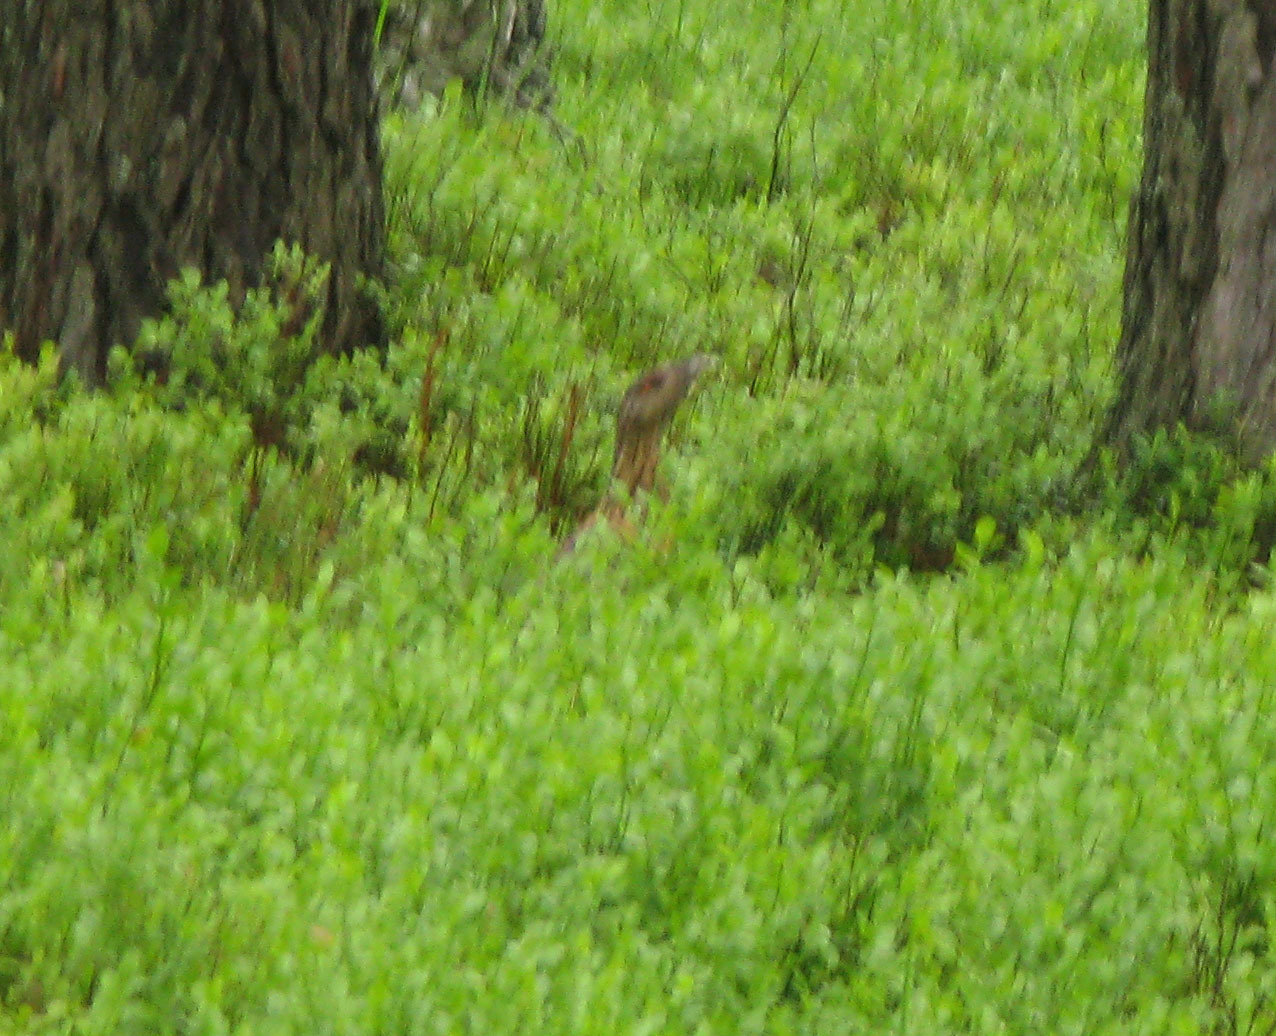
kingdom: Animalia
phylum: Chordata
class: Aves
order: Galliformes
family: Phasianidae
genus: Tetrao
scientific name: Tetrao urogallus
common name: Western capercaillie
